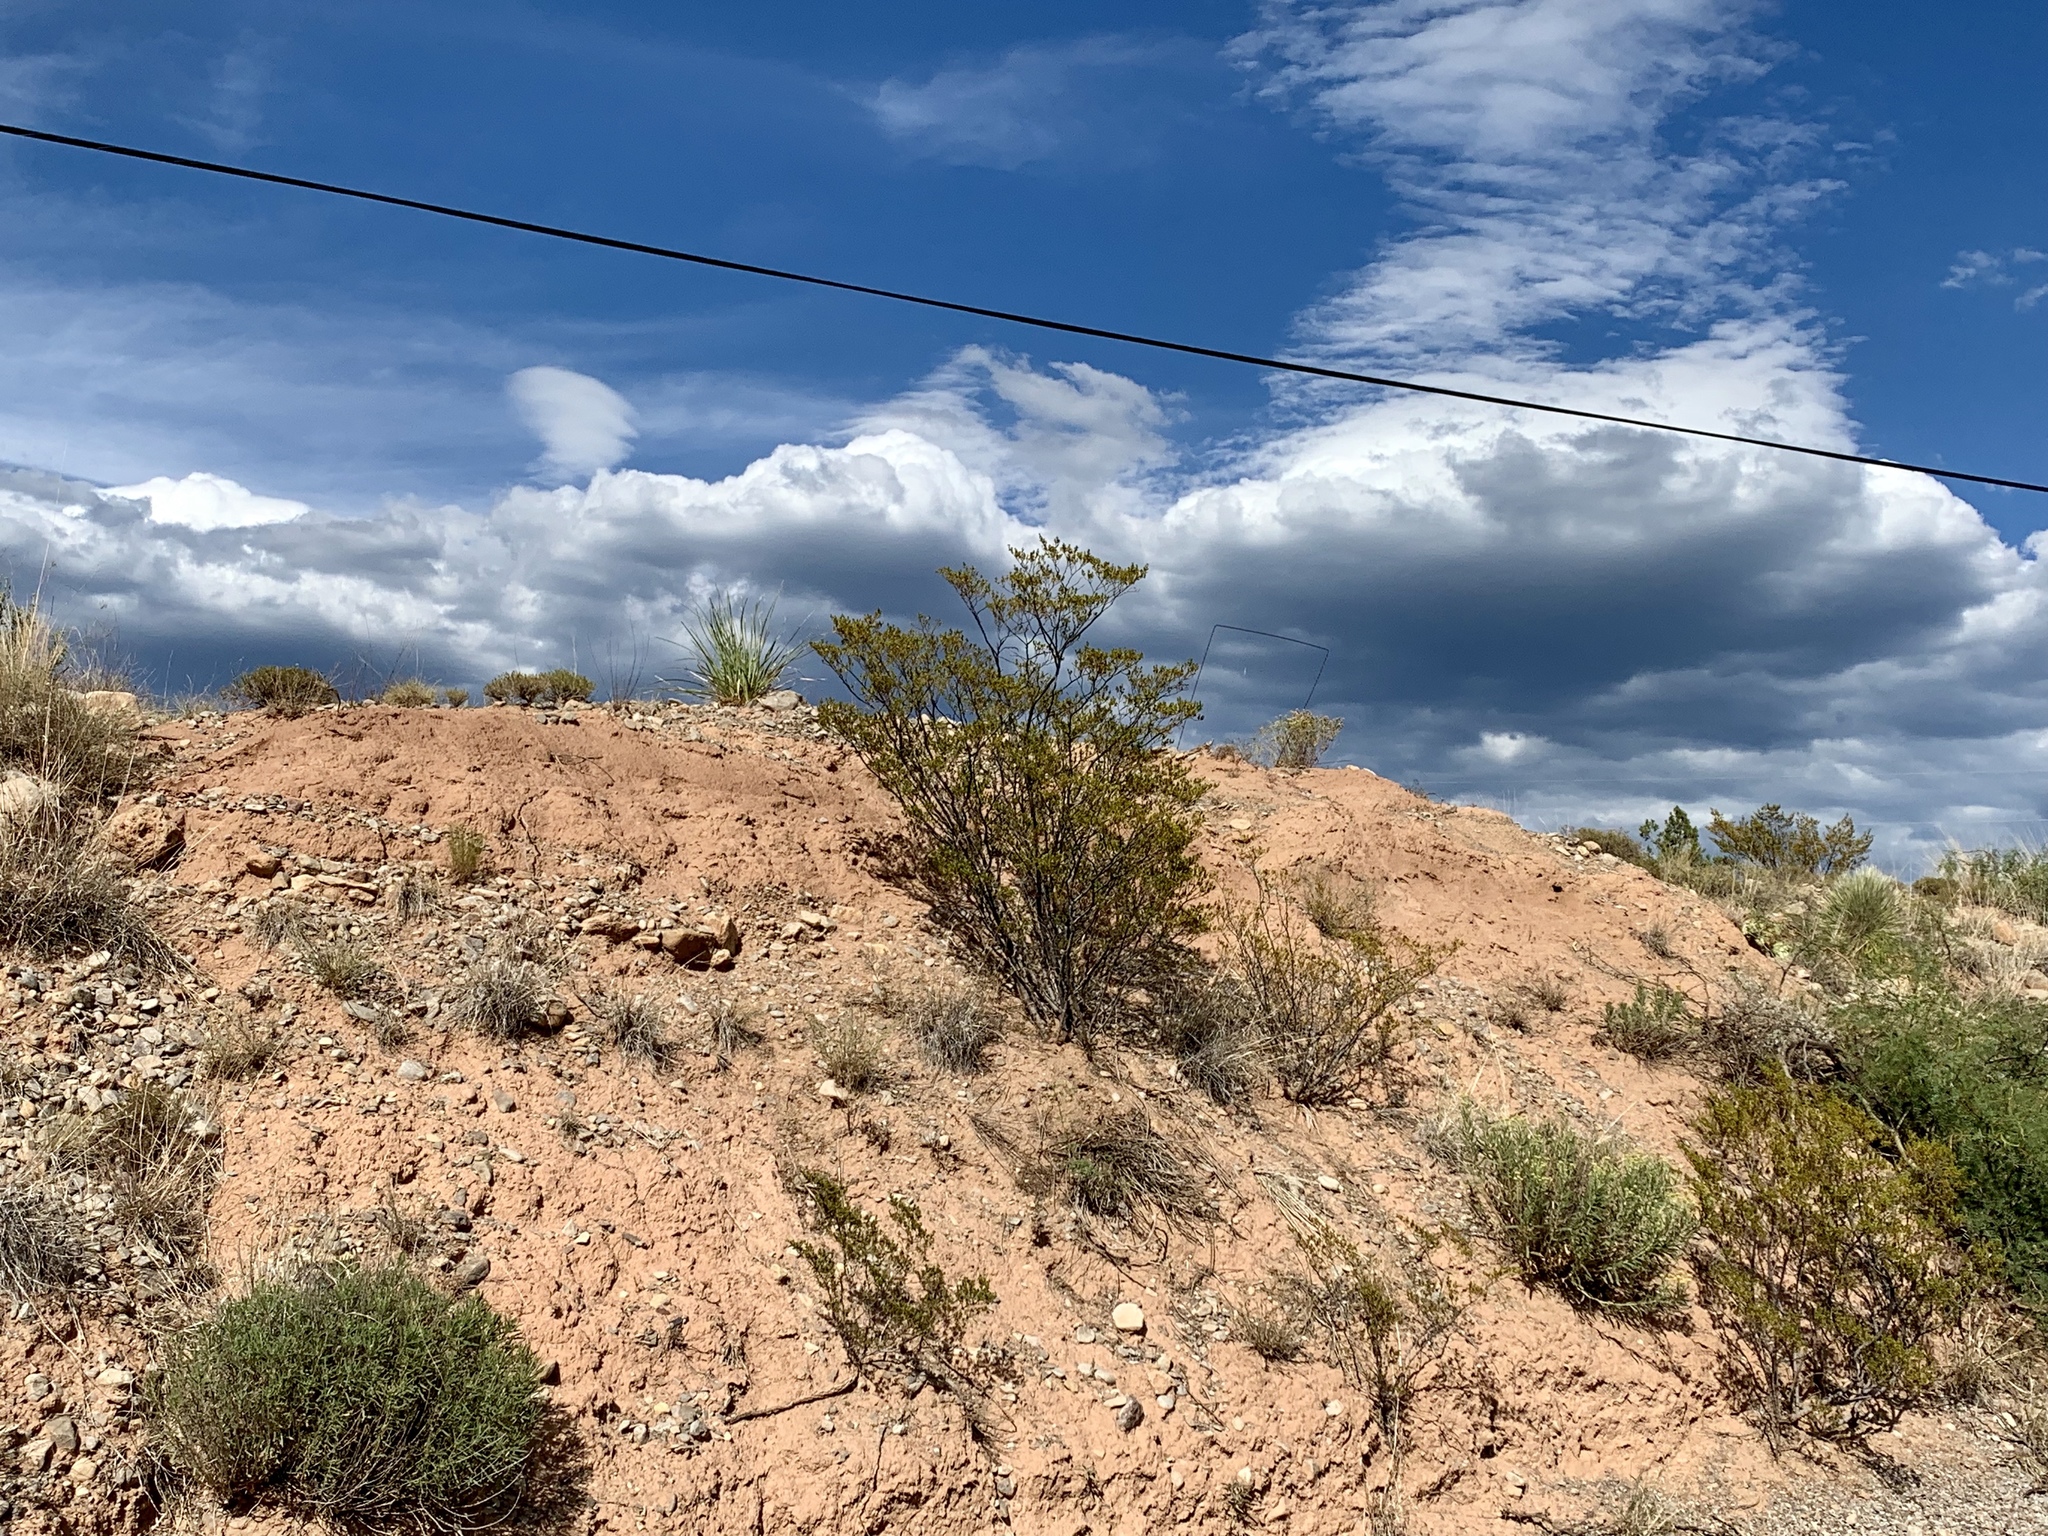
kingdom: Plantae
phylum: Tracheophyta
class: Magnoliopsida
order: Zygophyllales
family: Zygophyllaceae
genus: Larrea
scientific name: Larrea tridentata
